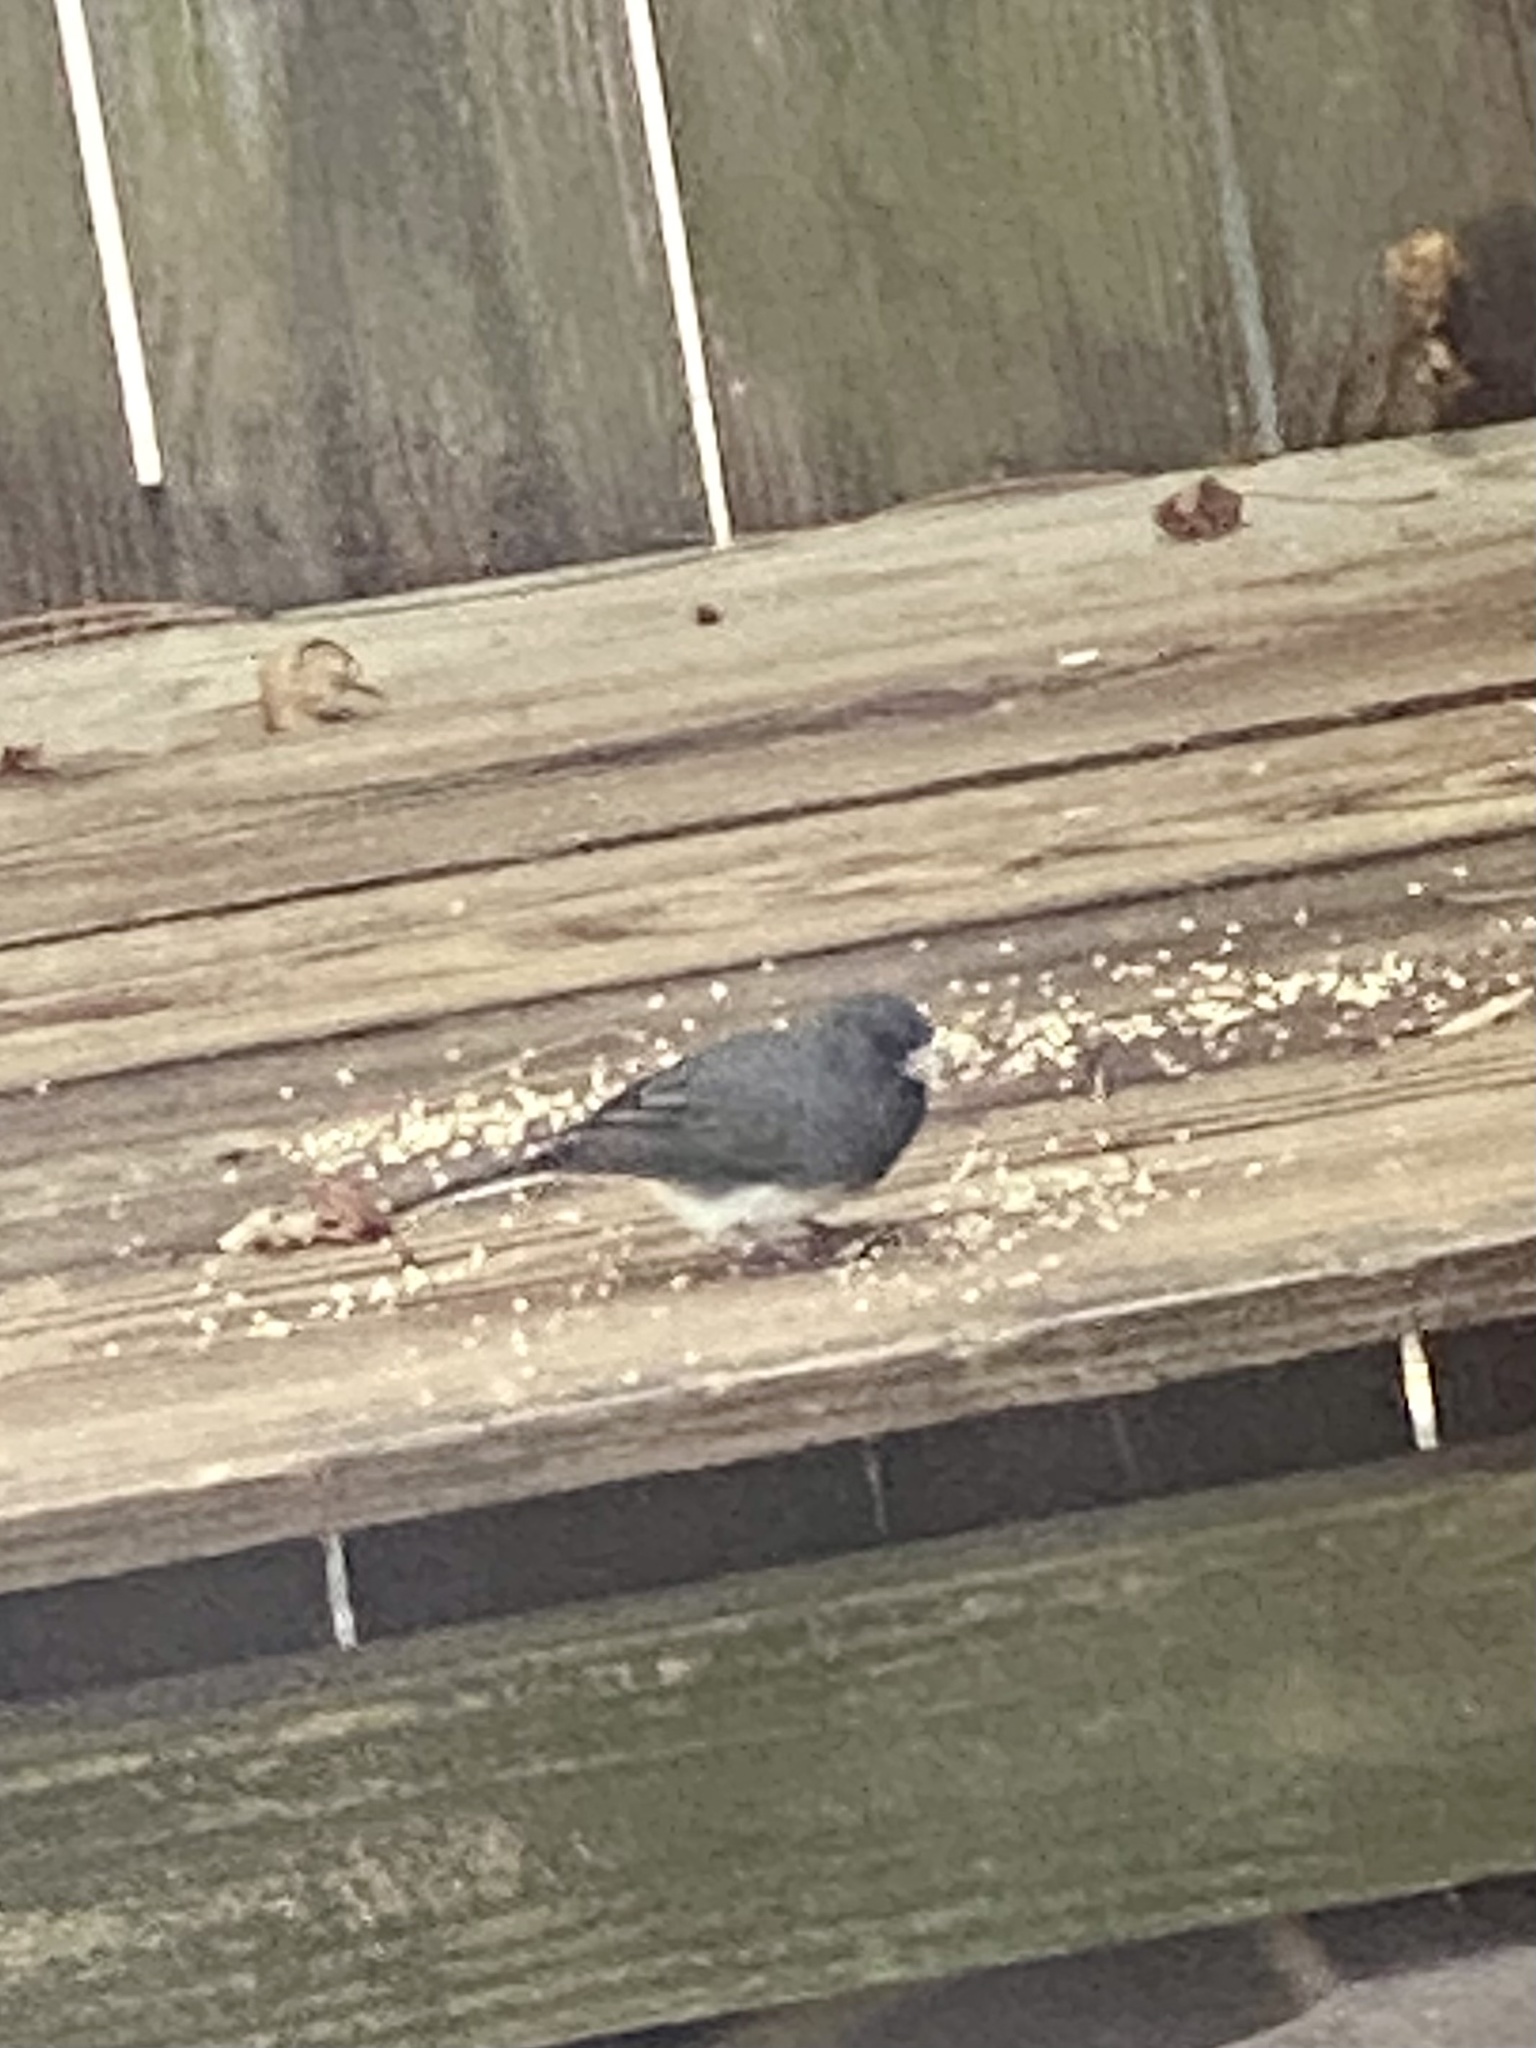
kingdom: Animalia
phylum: Chordata
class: Aves
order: Passeriformes
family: Passerellidae
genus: Junco
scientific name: Junco hyemalis
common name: Dark-eyed junco
